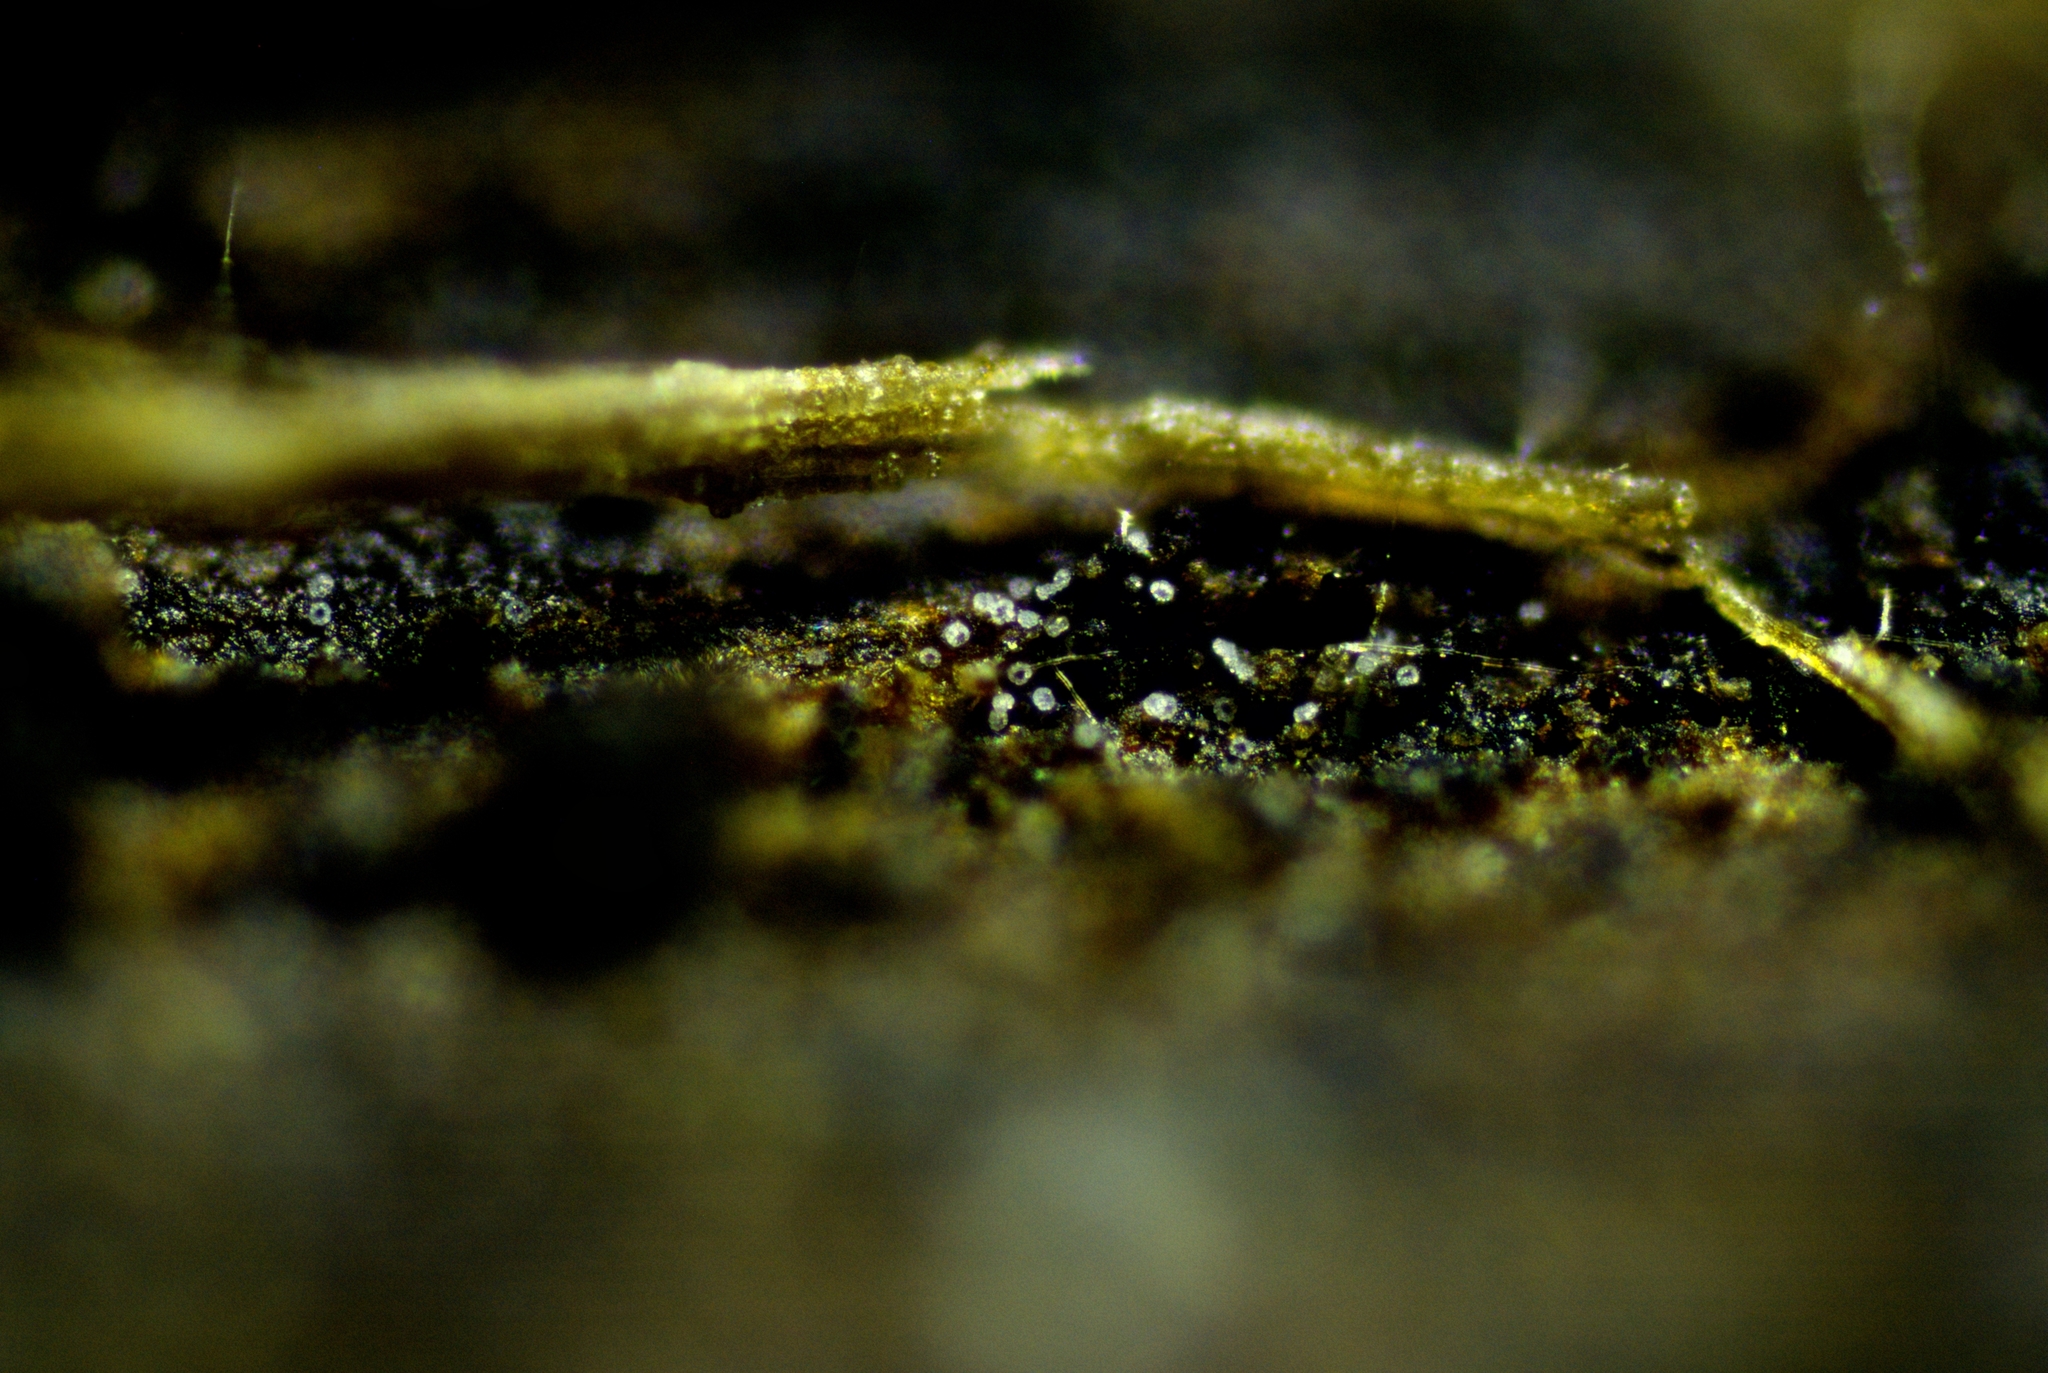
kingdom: Fungi
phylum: Ascomycota
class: Leotiomycetes
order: Helotiales
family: Hyaloscyphaceae
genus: Hyaloscypha
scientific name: Hyaloscypha spinulosa
